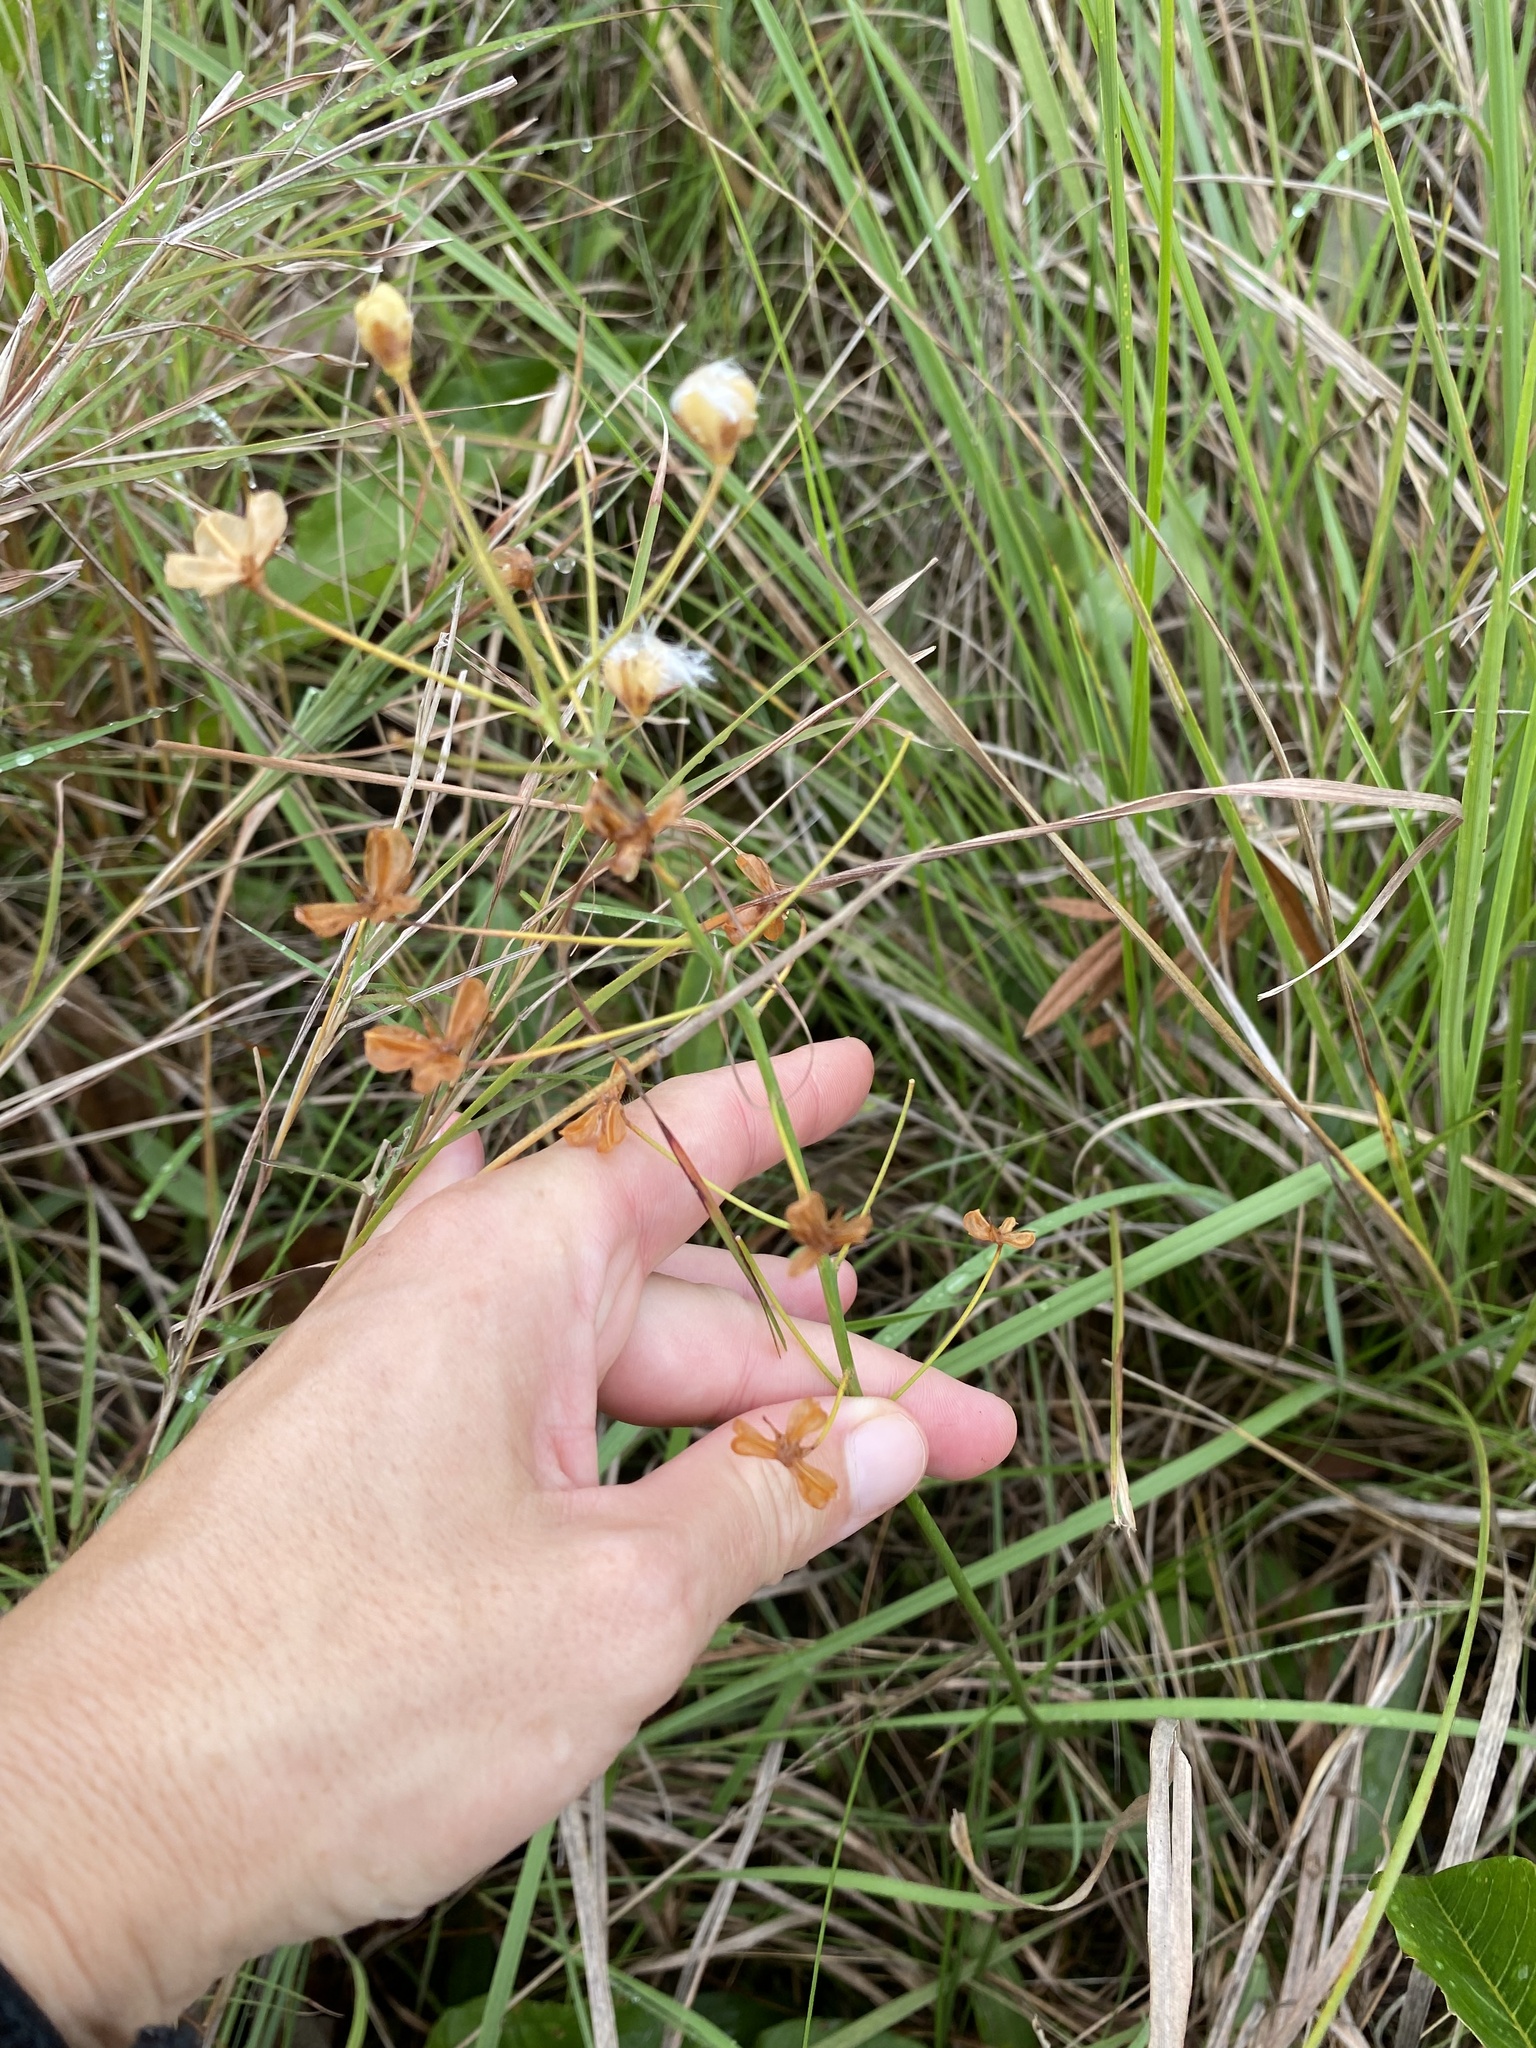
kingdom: Plantae
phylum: Tracheophyta
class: Liliopsida
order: Asparagales
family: Asparagaceae
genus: Eriospermum
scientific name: Eriospermum mackenii
